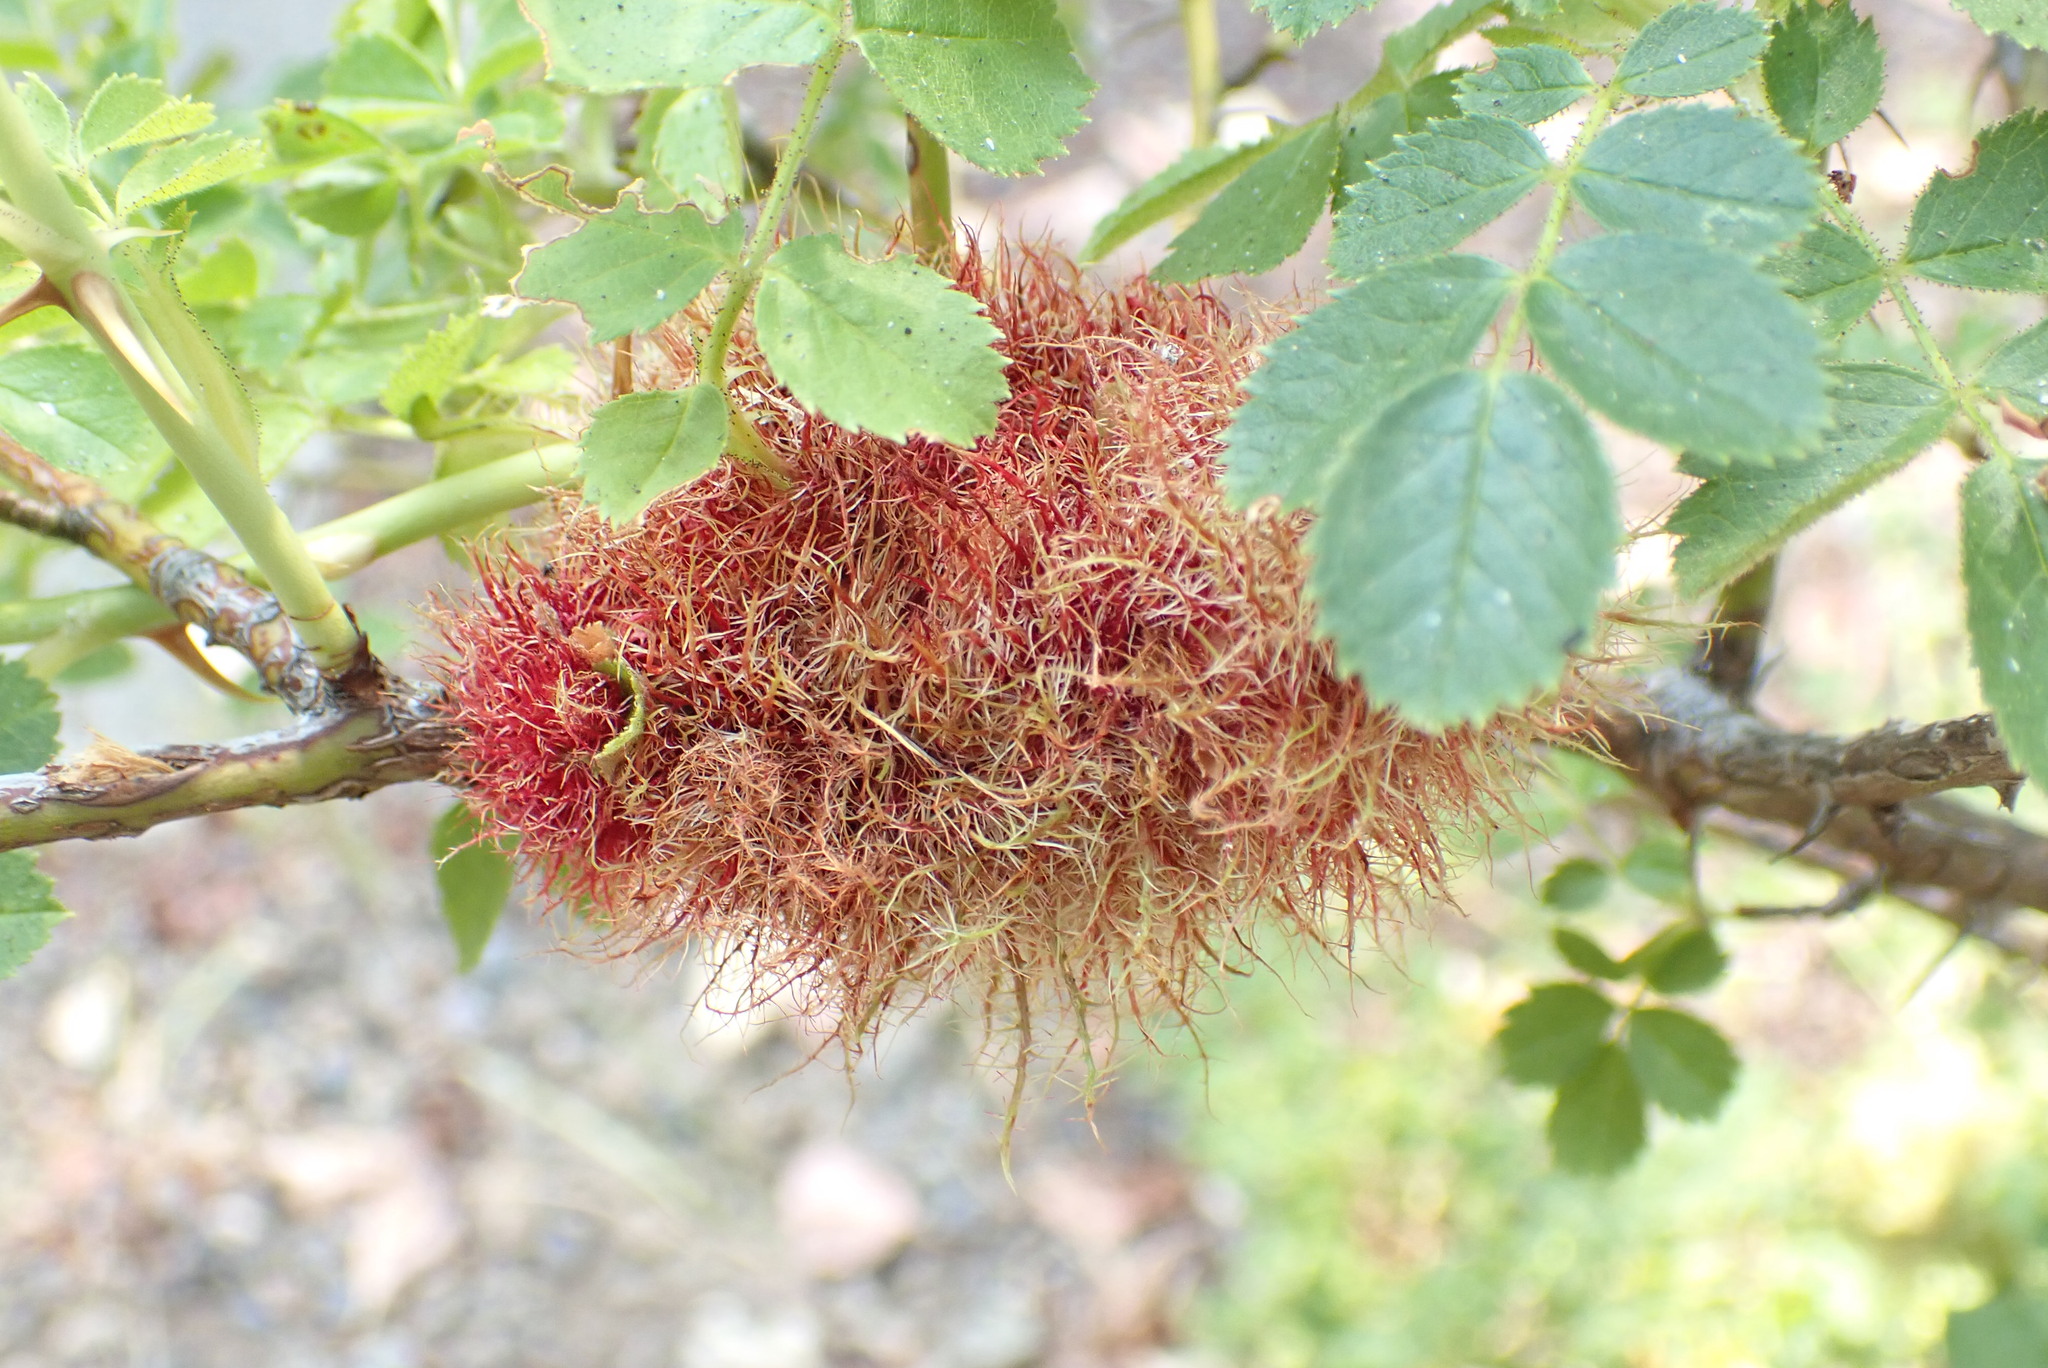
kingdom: Animalia
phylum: Arthropoda
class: Insecta
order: Hymenoptera
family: Cynipidae
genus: Diplolepis
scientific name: Diplolepis rosae
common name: Bedeguar gall
